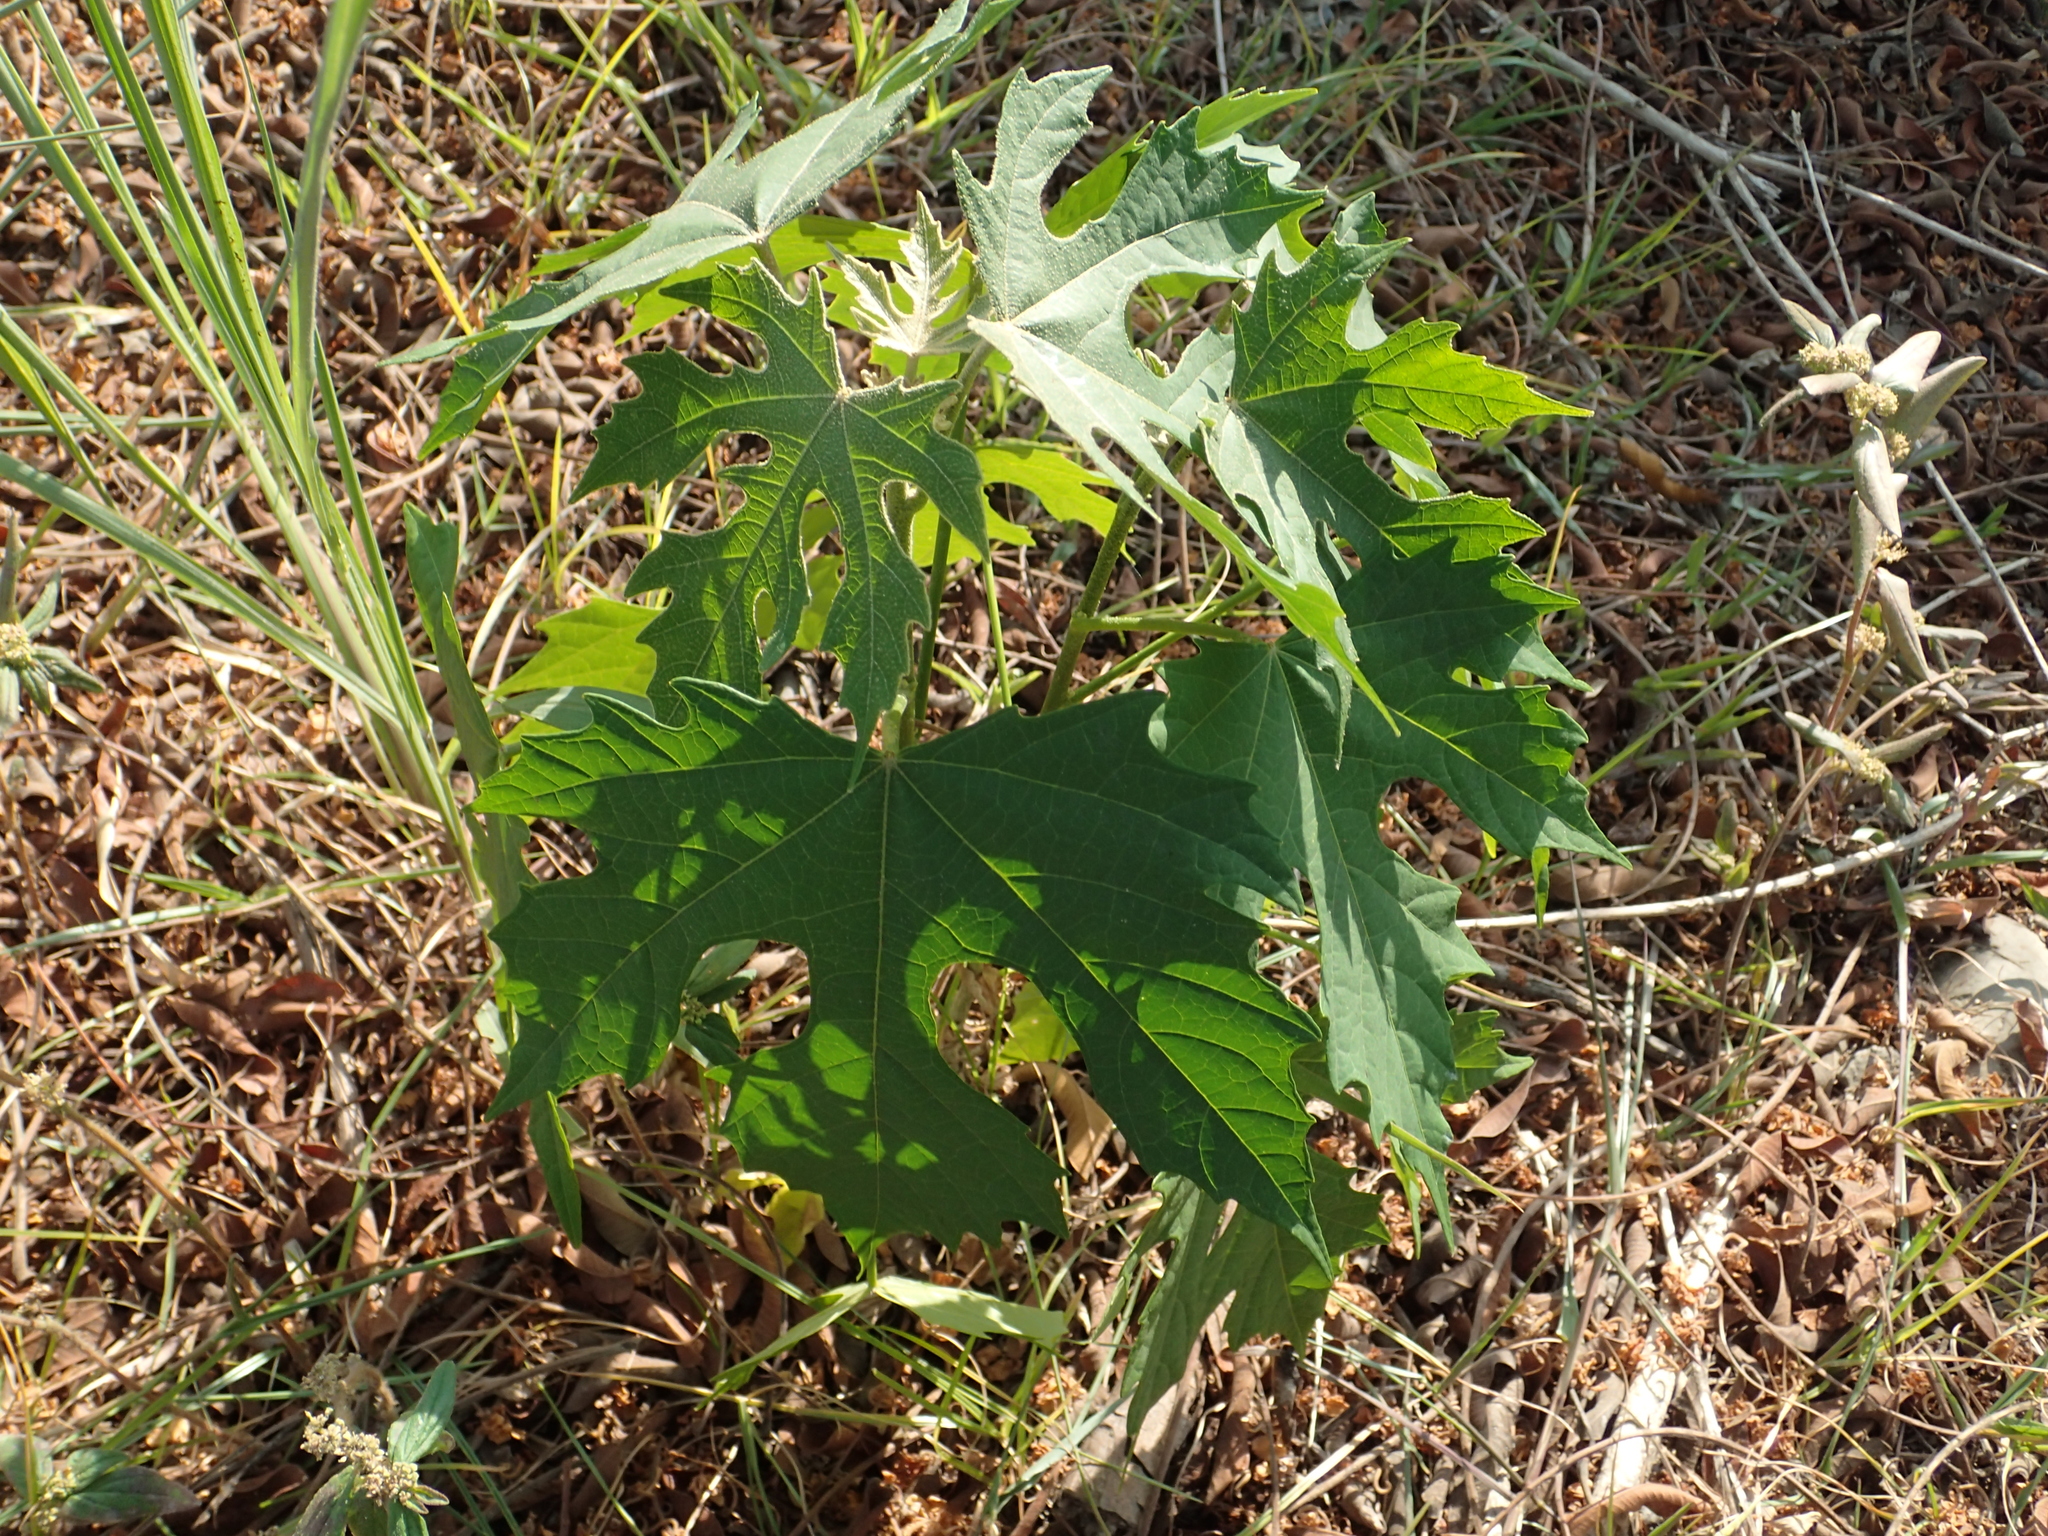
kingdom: Plantae
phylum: Tracheophyta
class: Magnoliopsida
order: Malpighiales
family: Euphorbiaceae
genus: Melanolepis
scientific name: Melanolepis multiglandulosa
